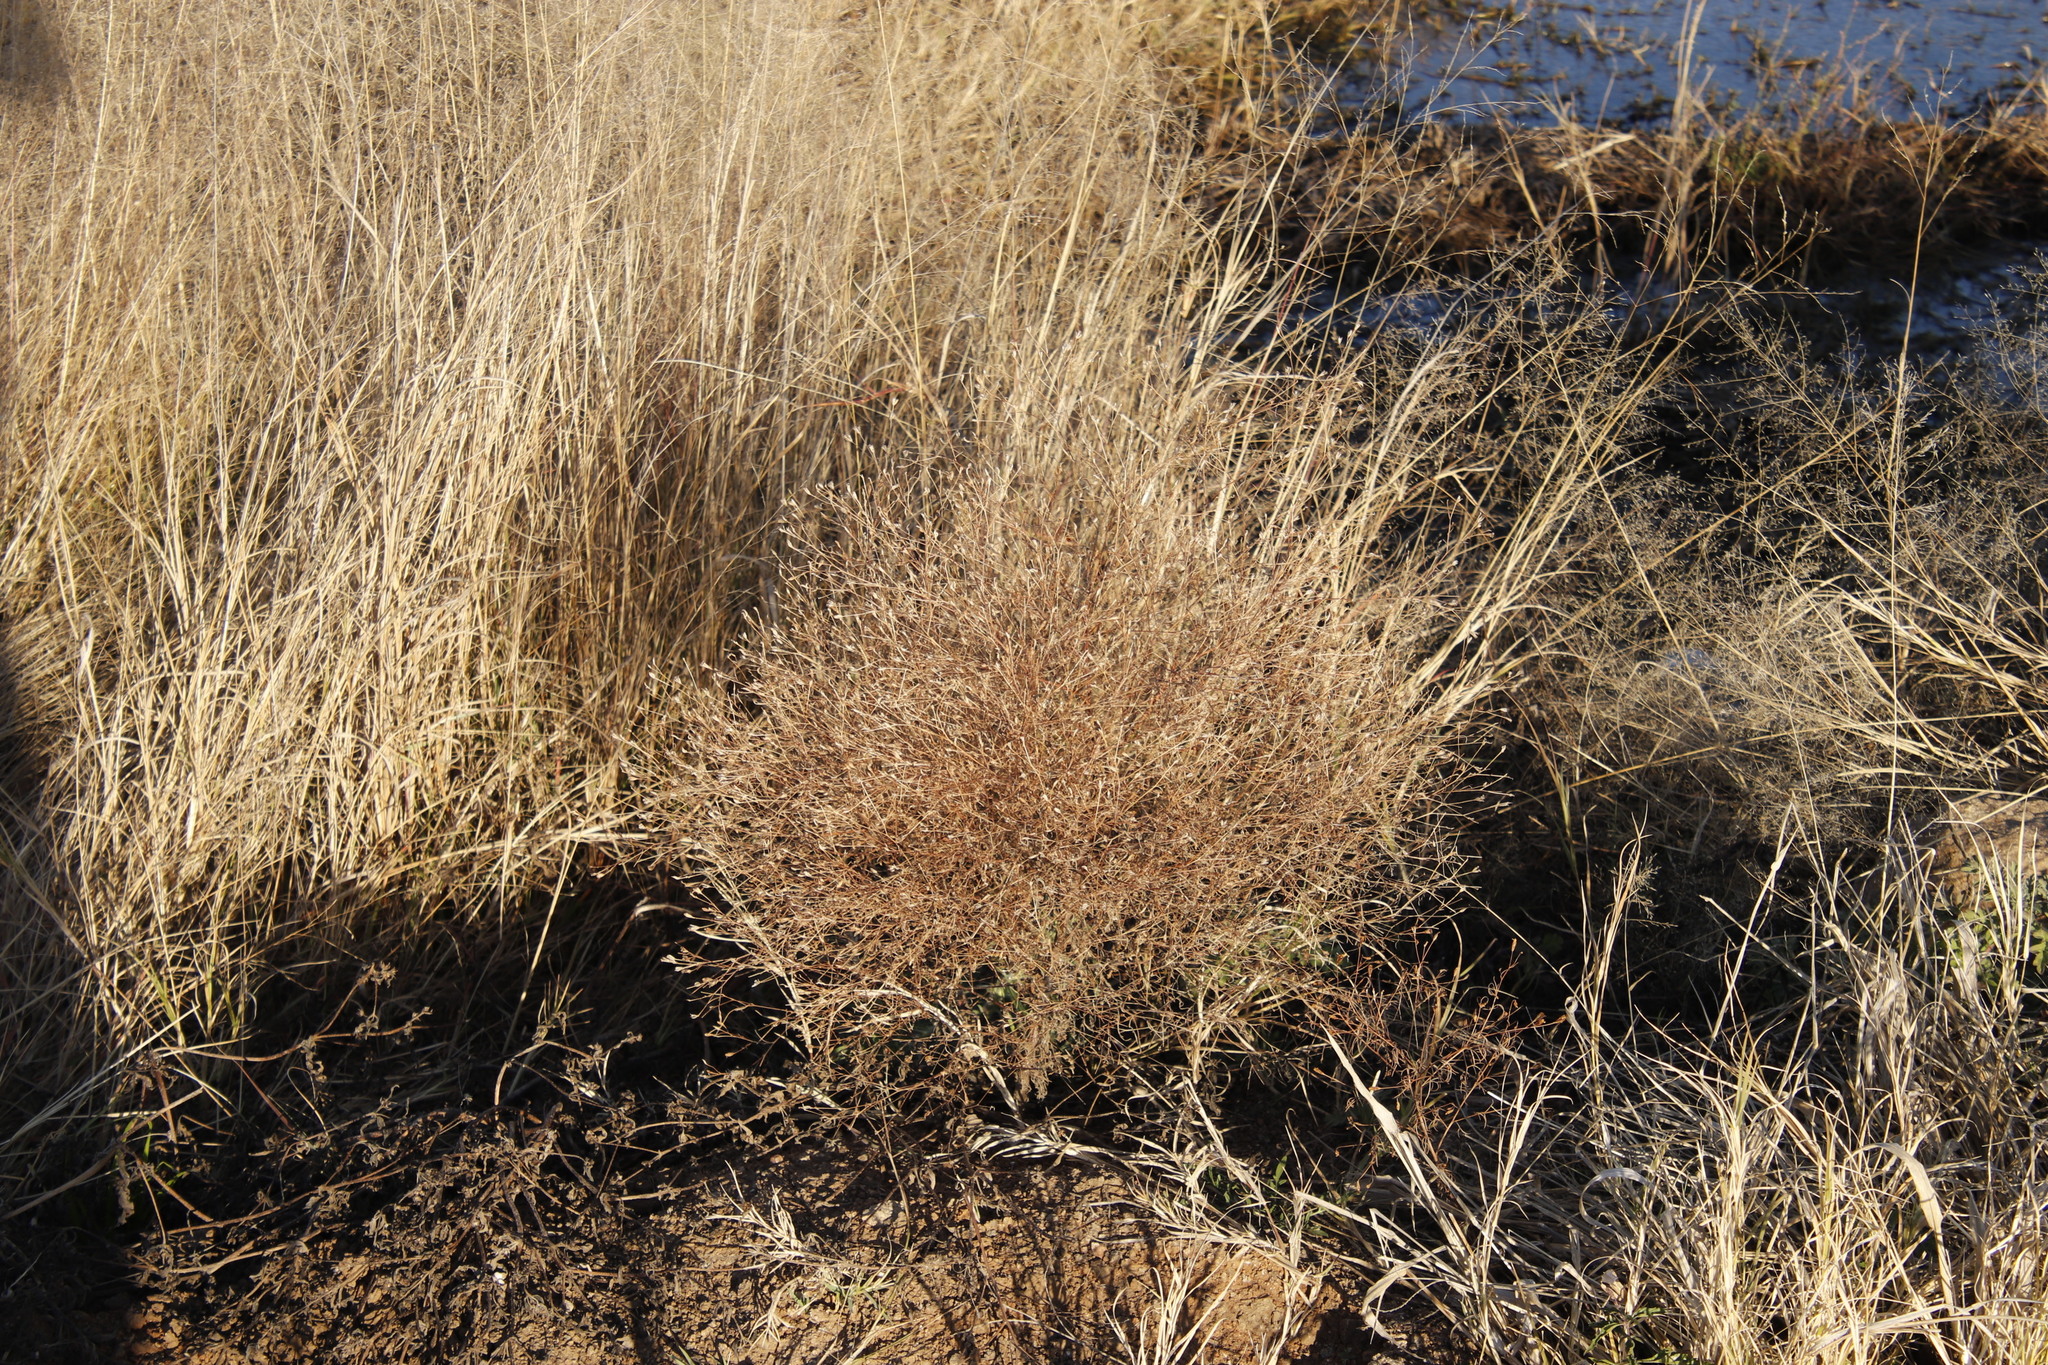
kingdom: Plantae
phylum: Tracheophyta
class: Magnoliopsida
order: Asterales
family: Asteraceae
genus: Schkuhria
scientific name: Schkuhria pinnata
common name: Dwarf marigold
